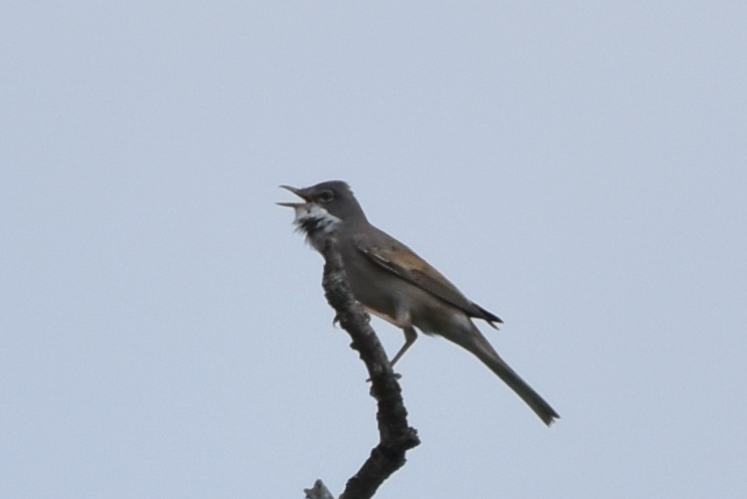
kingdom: Animalia
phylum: Chordata
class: Aves
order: Passeriformes
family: Sylviidae
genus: Sylvia
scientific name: Sylvia communis
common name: Common whitethroat
